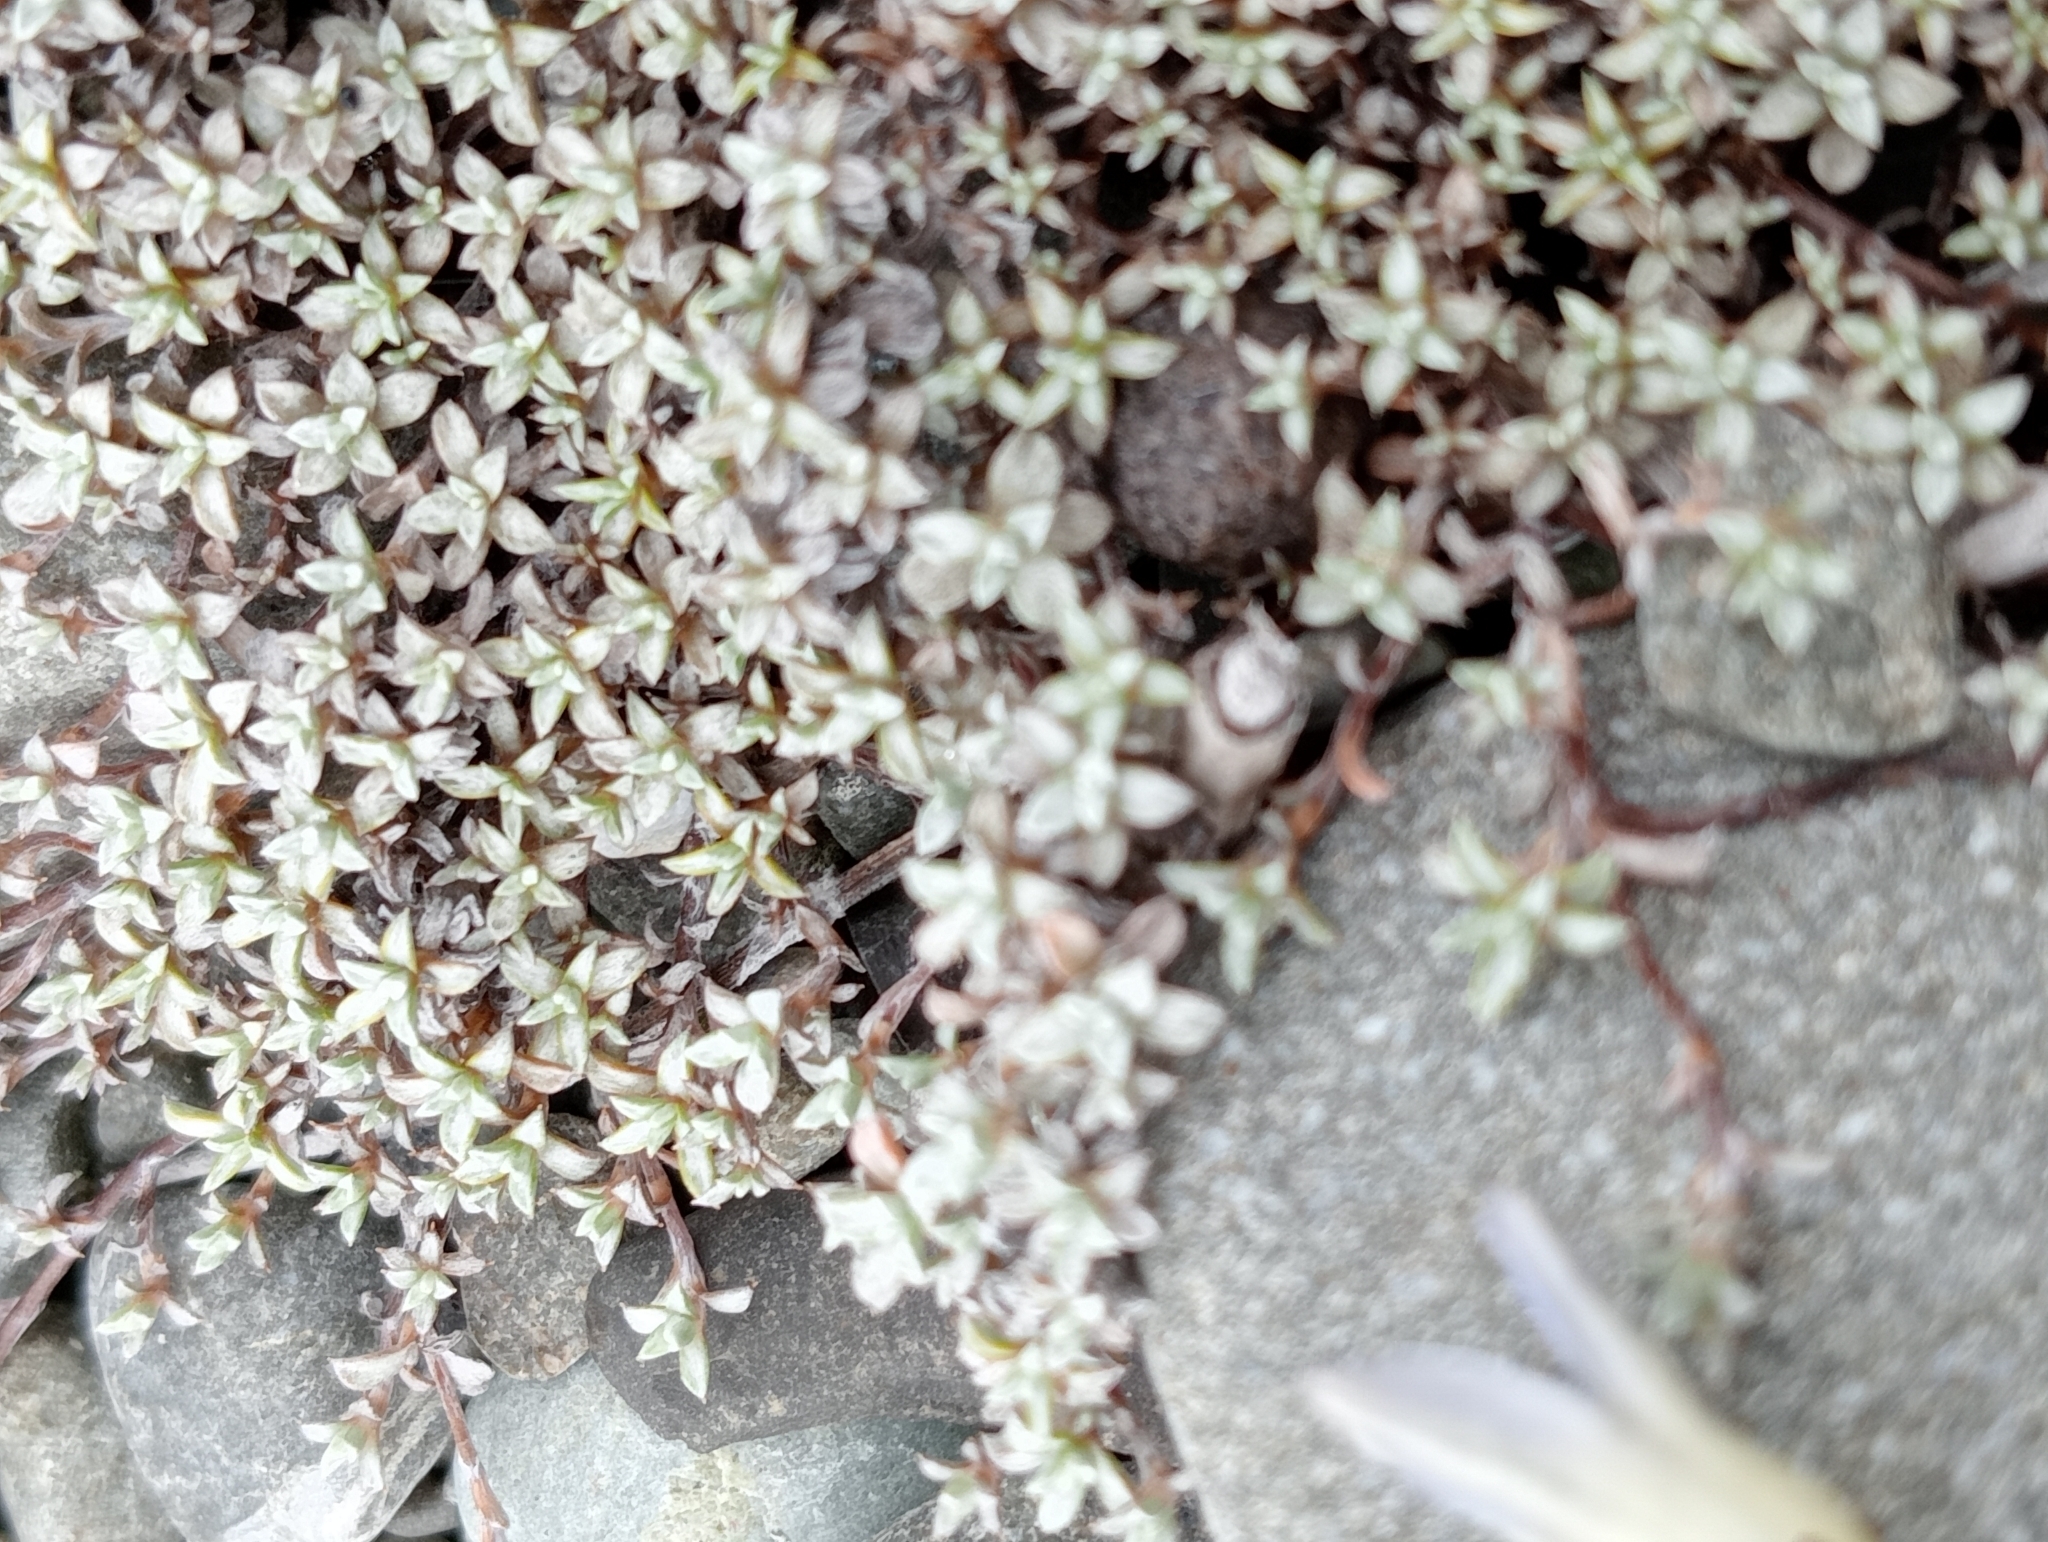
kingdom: Plantae
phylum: Tracheophyta
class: Magnoliopsida
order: Asterales
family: Asteraceae
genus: Raoulia
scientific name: Raoulia tenuicaulis
